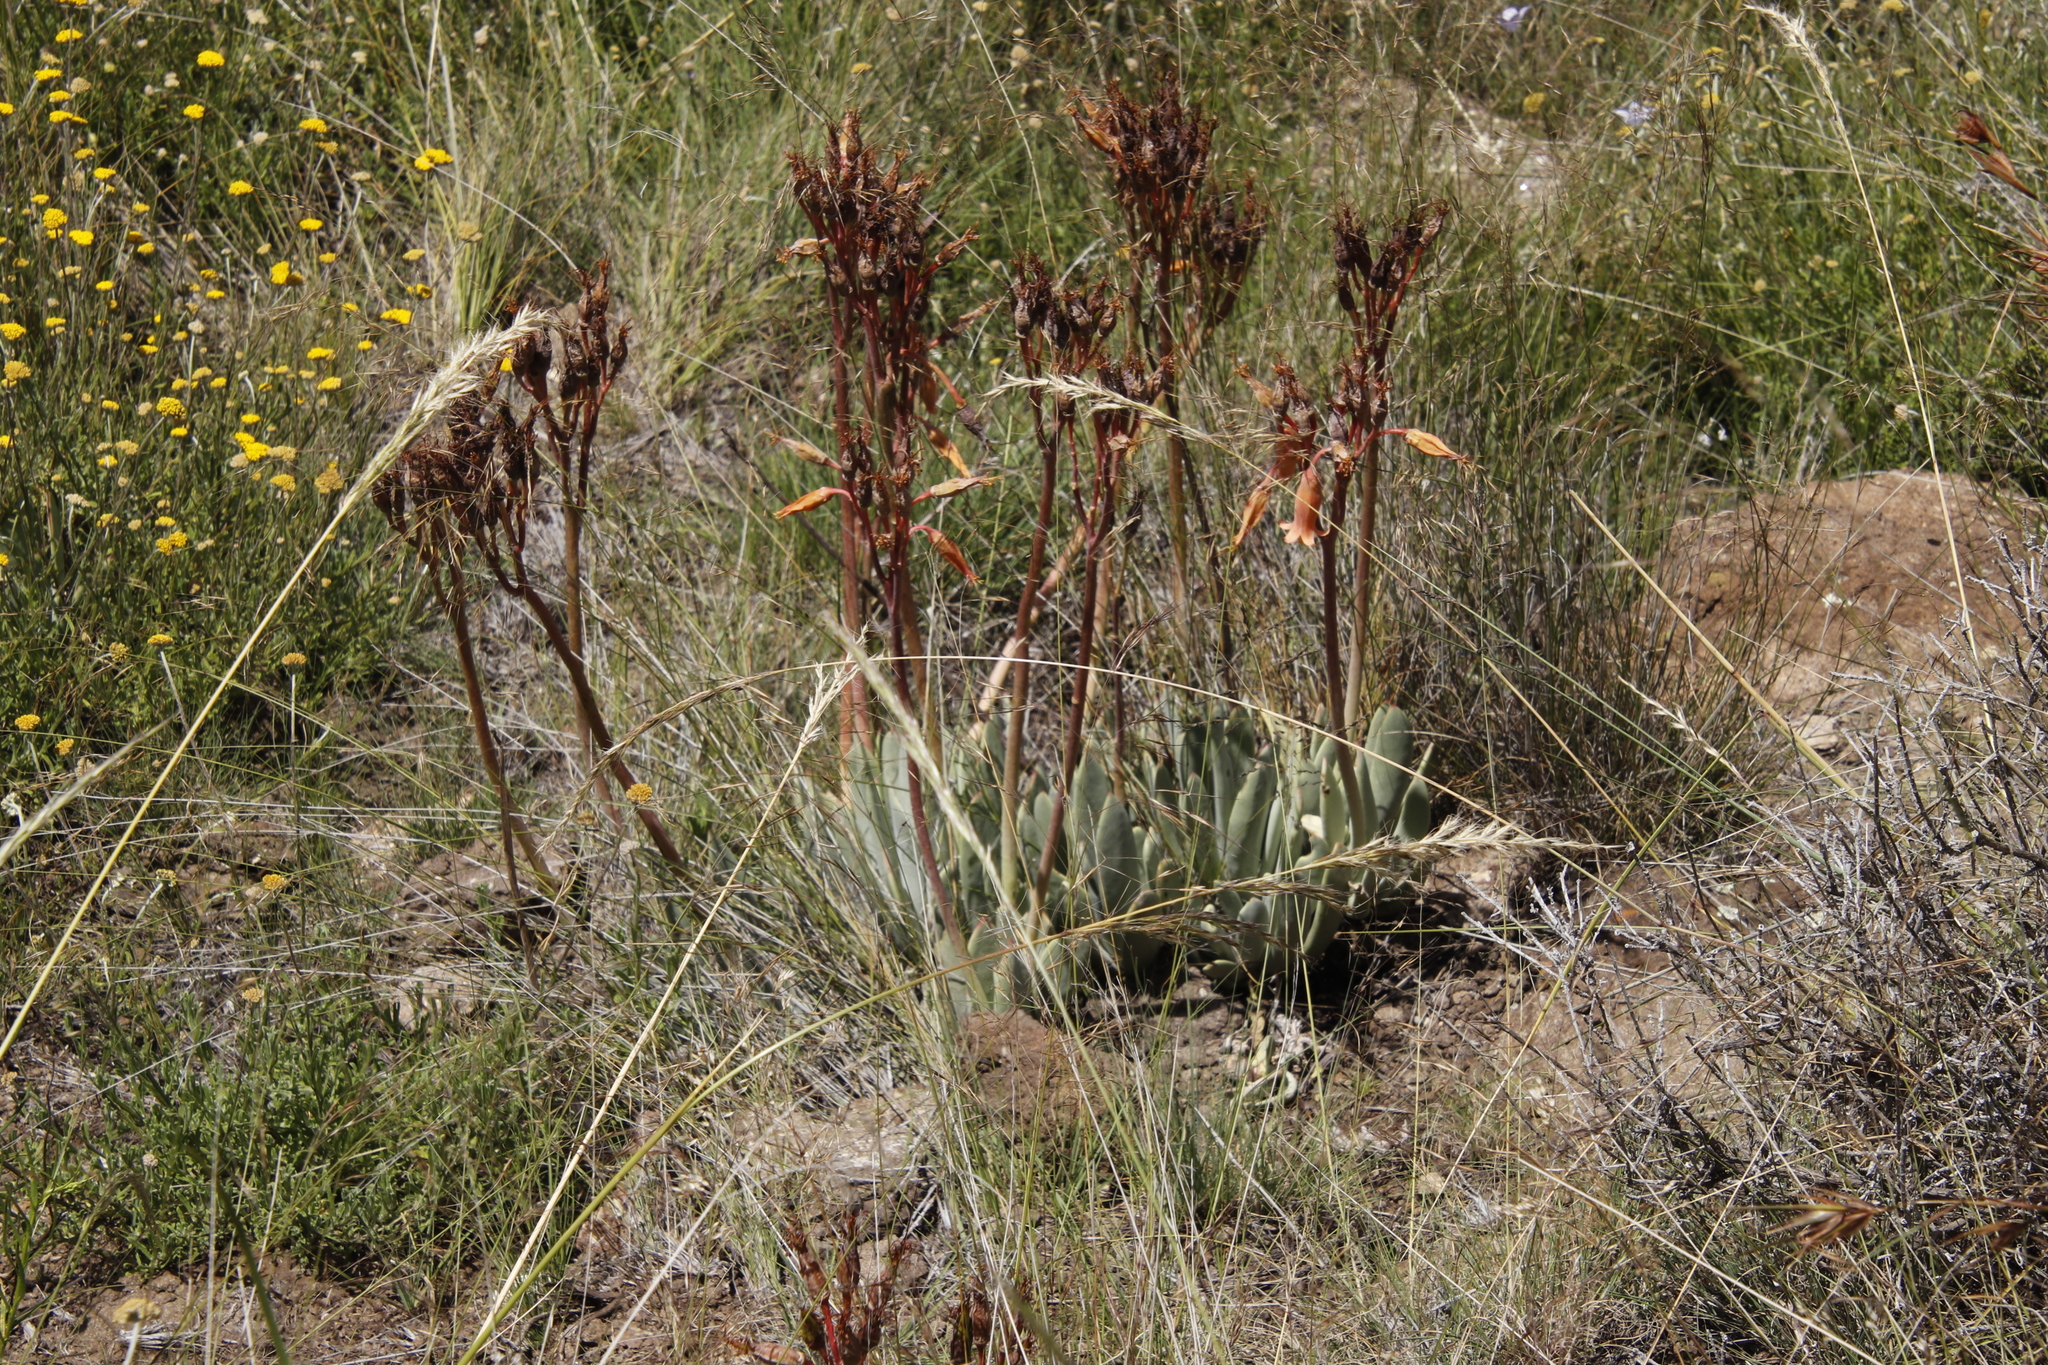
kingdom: Plantae
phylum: Tracheophyta
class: Magnoliopsida
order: Saxifragales
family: Crassulaceae
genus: Cotyledon
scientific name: Cotyledon orbiculata
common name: Pig's ear
